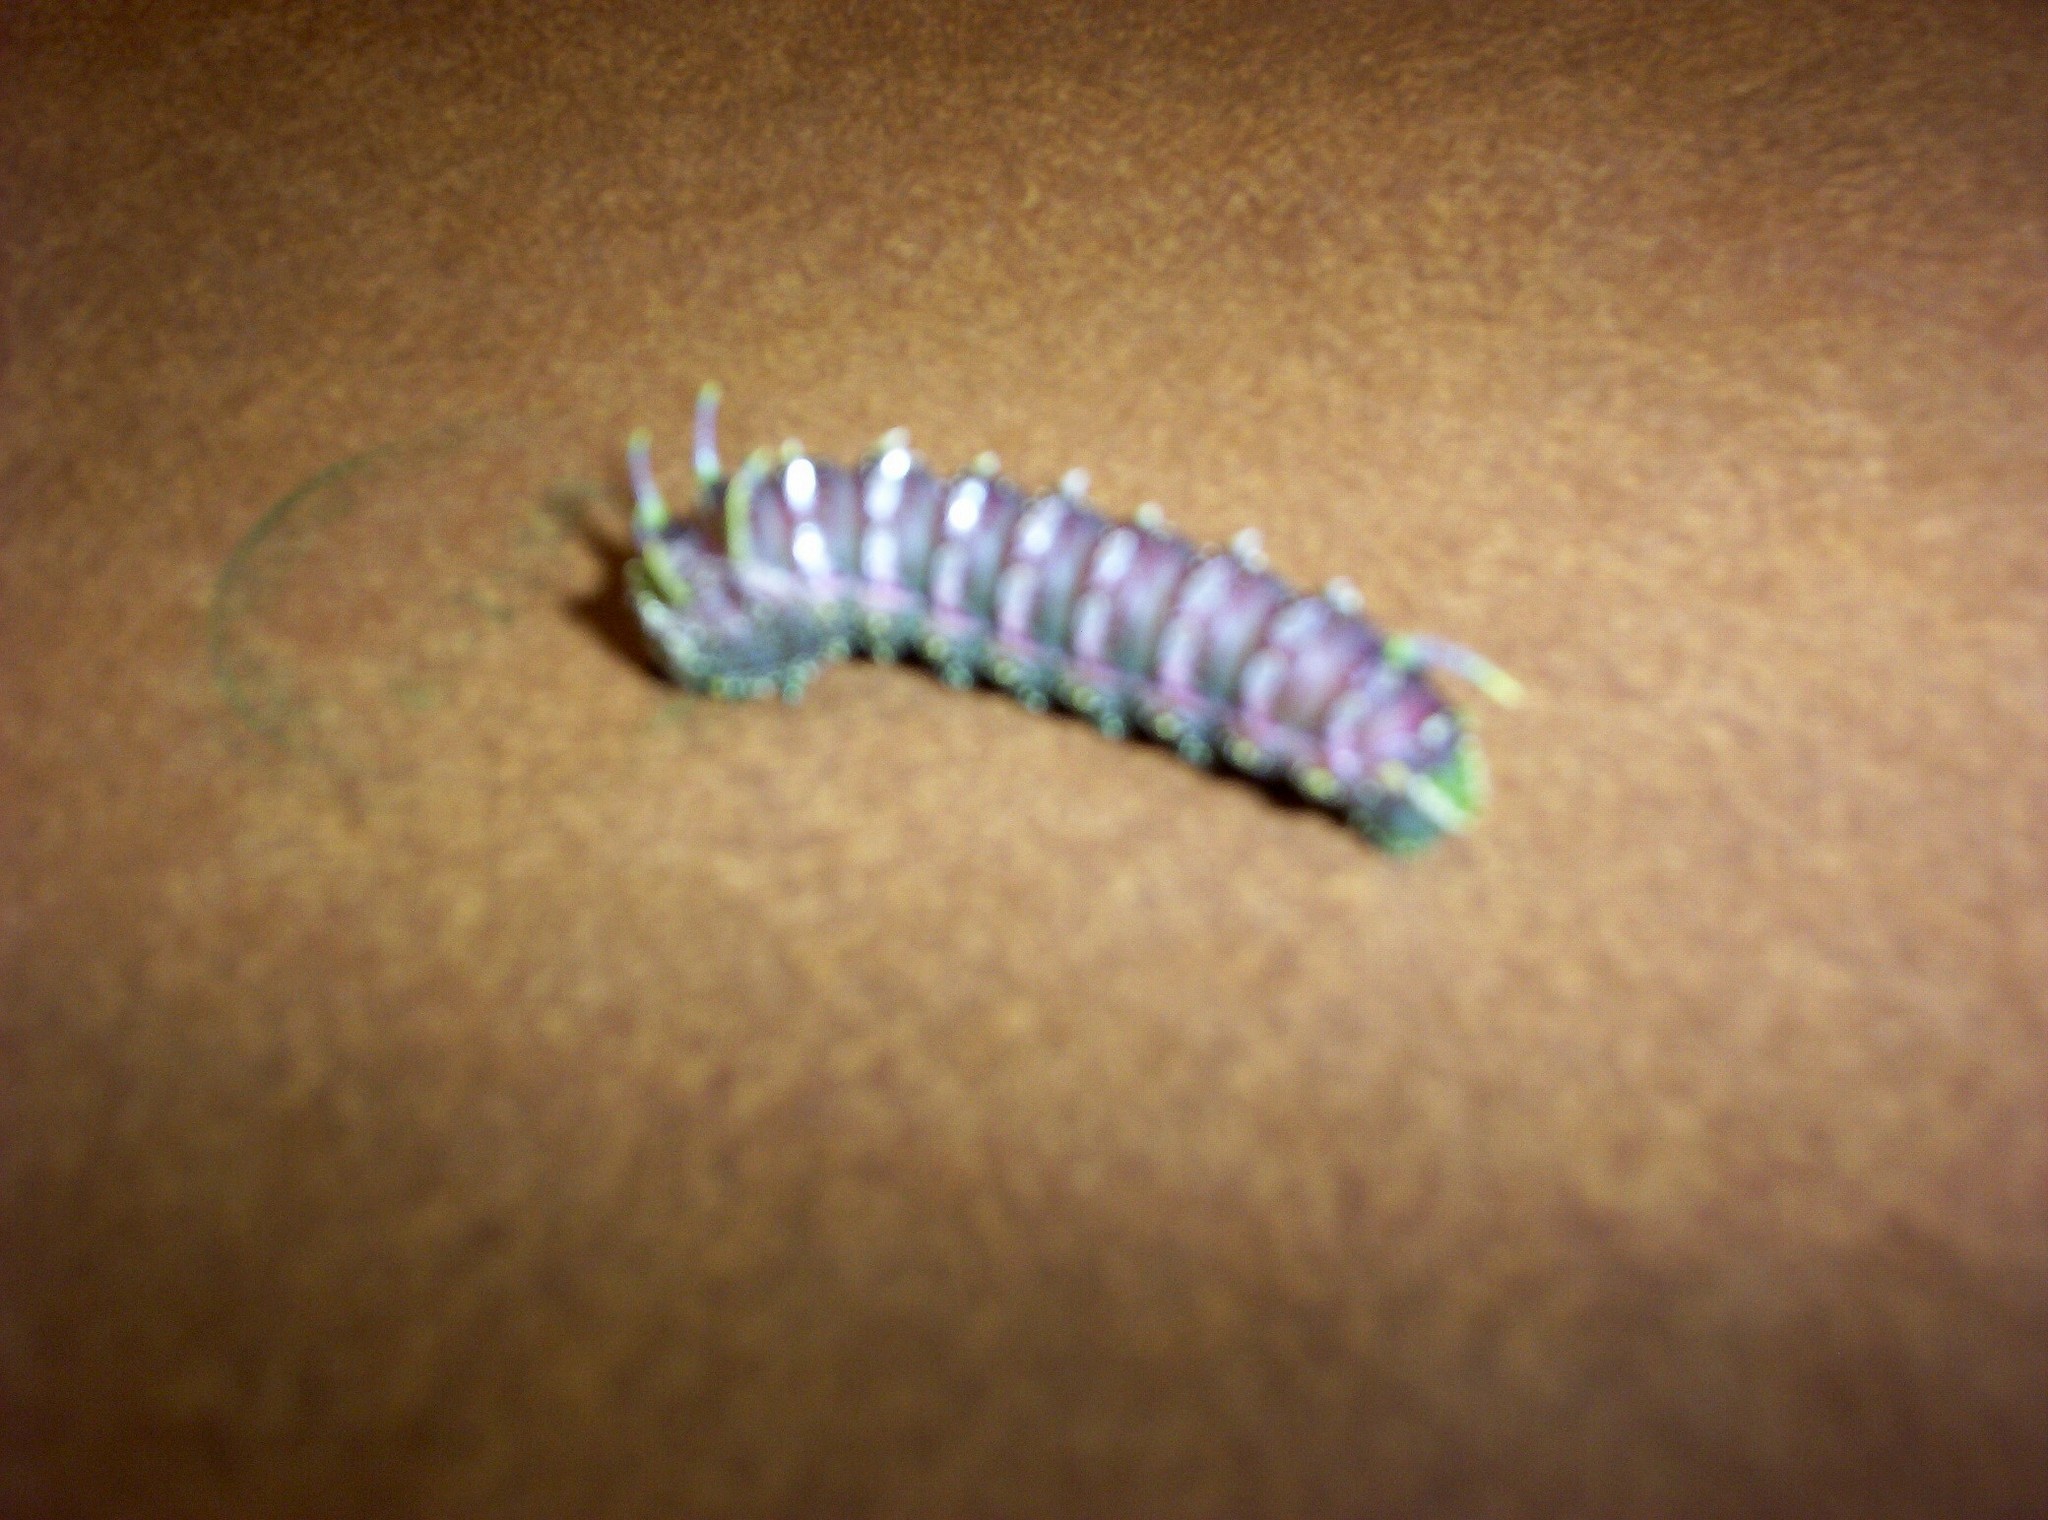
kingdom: Animalia
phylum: Arthropoda
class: Insecta
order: Lepidoptera
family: Saturniidae
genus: Syssphinx
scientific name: Syssphinx hubbardi
